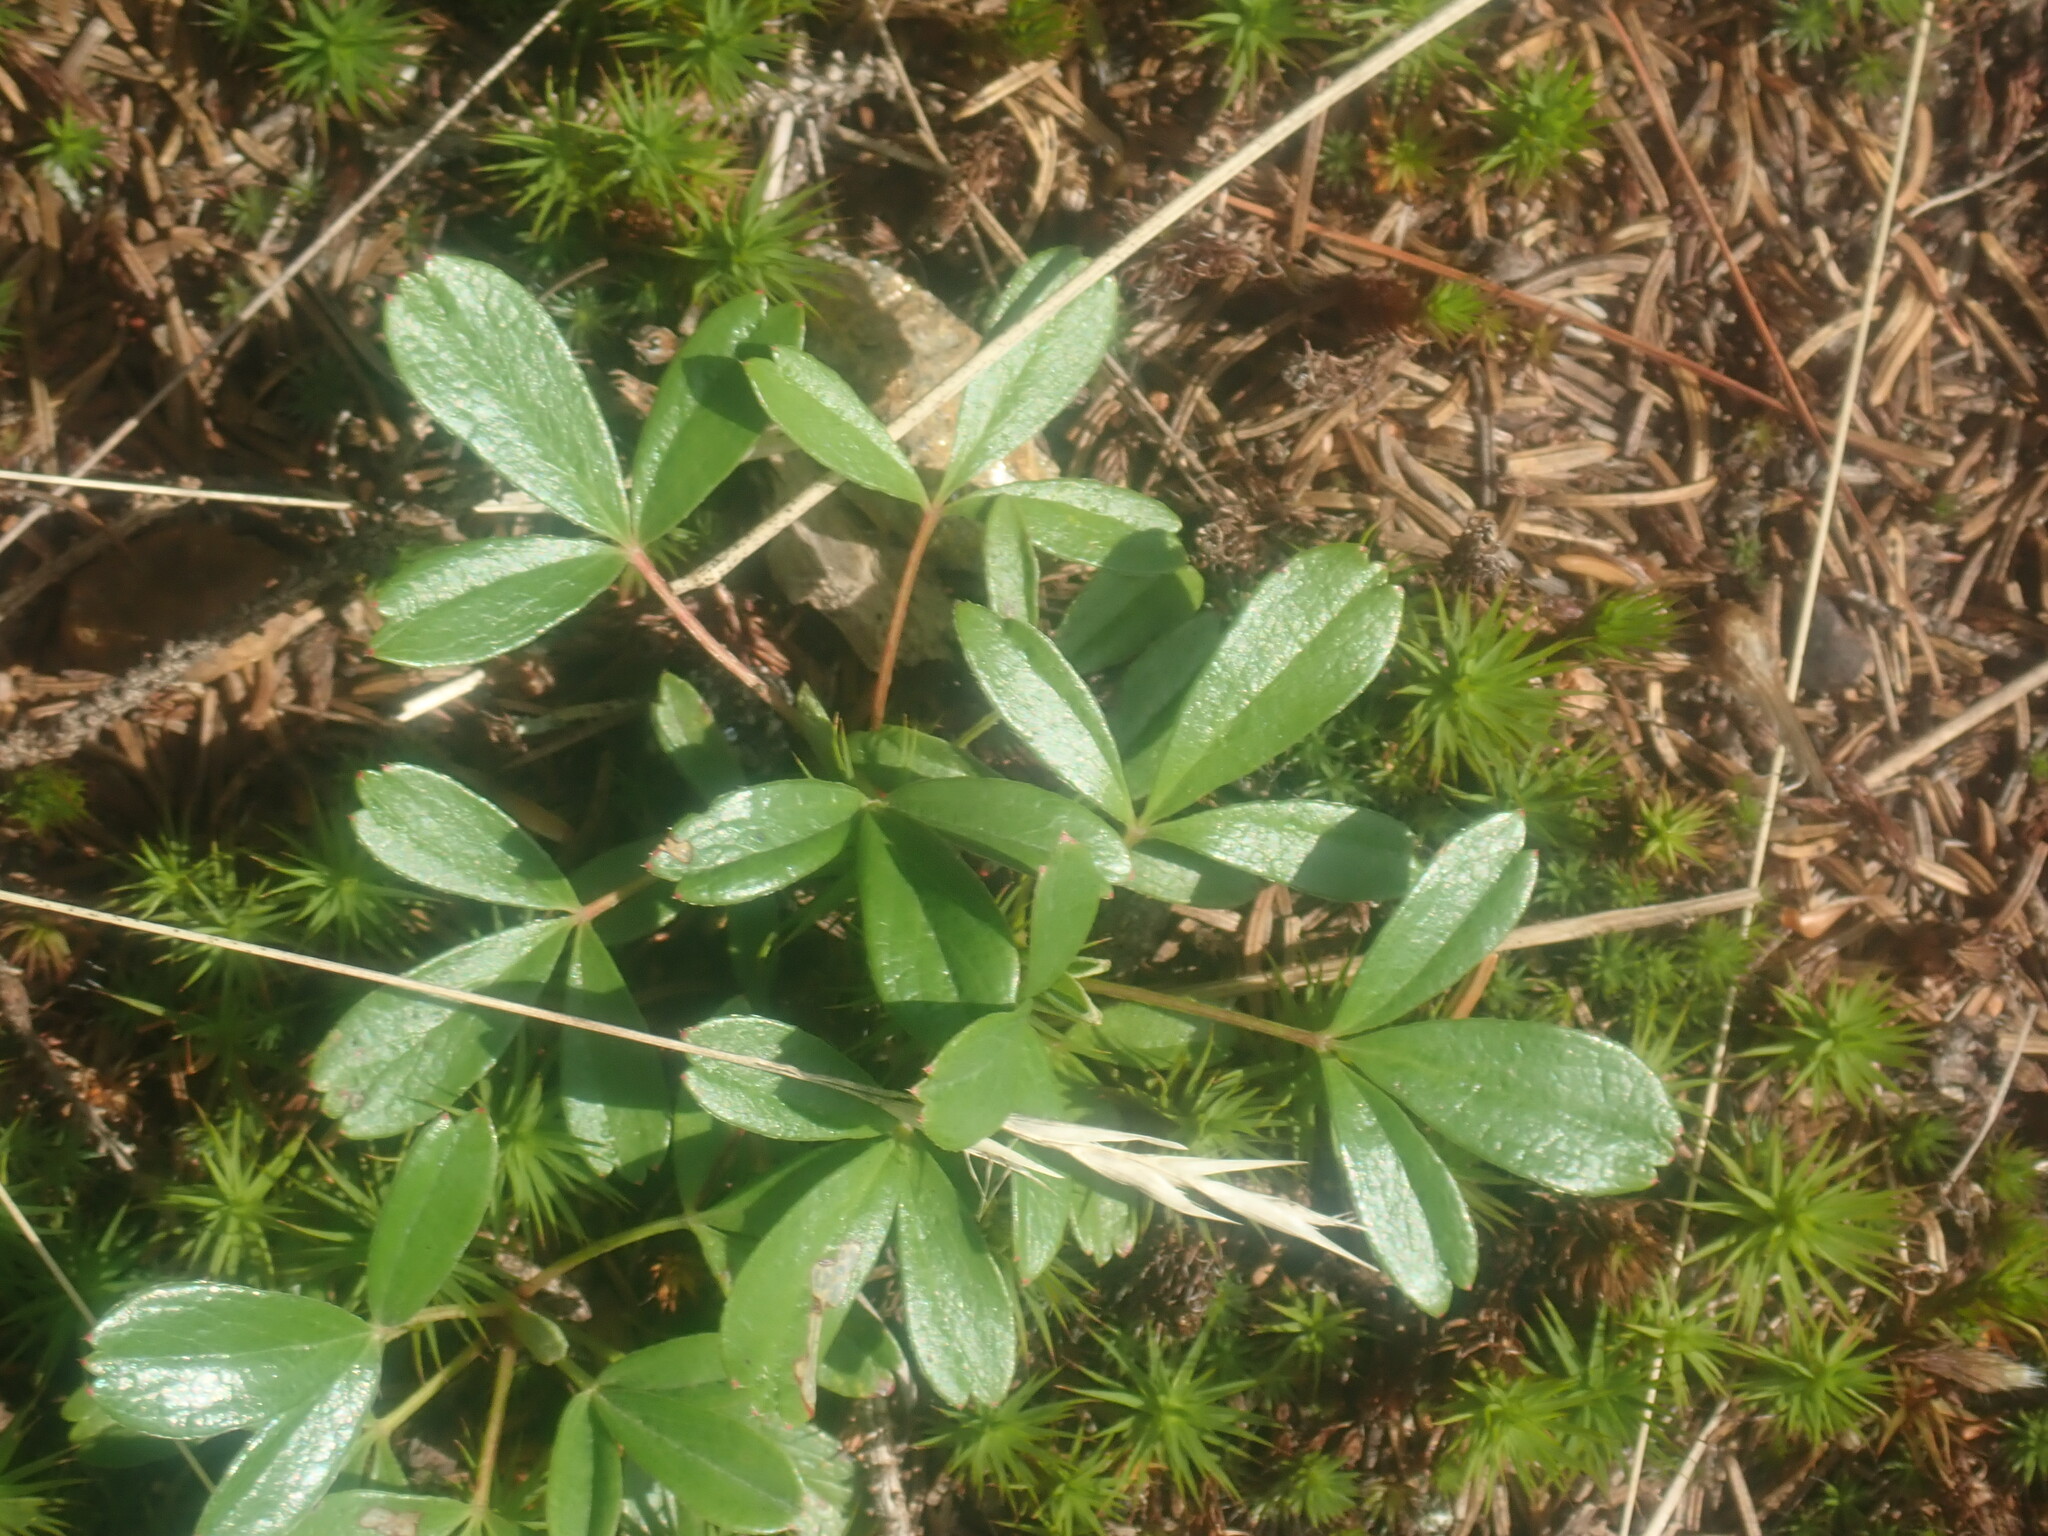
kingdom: Plantae
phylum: Tracheophyta
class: Magnoliopsida
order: Rosales
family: Rosaceae
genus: Sibbaldia
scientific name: Sibbaldia tridentata
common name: Three-toothed cinquefoil
